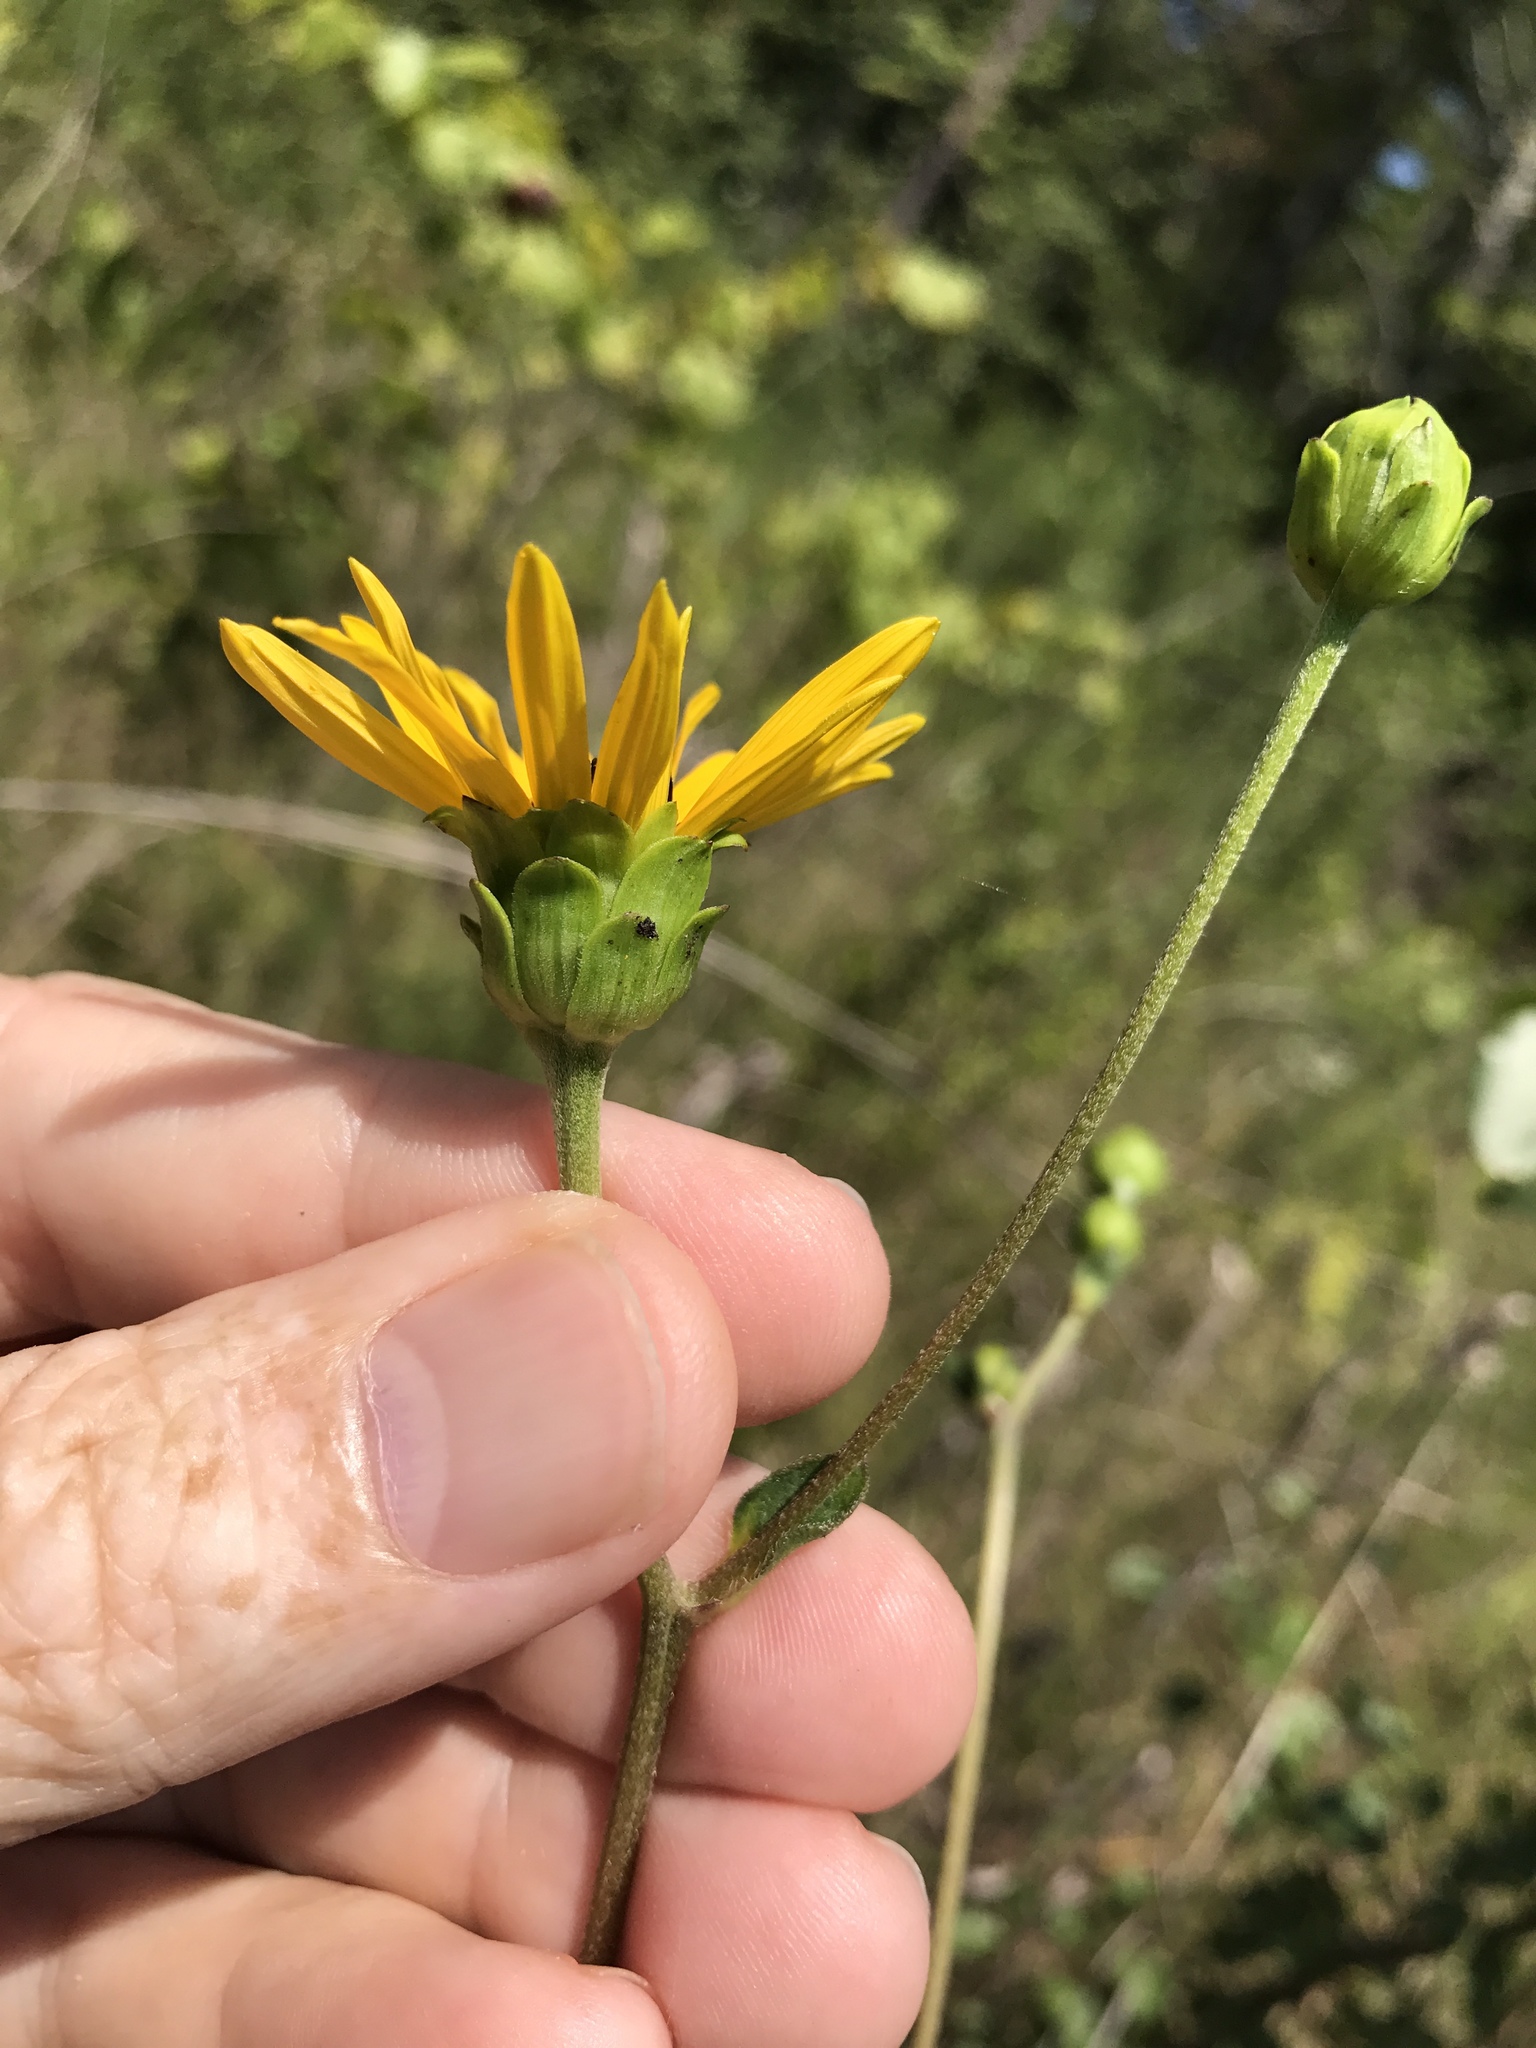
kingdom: Plantae
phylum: Tracheophyta
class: Magnoliopsida
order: Asterales
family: Asteraceae
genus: Silphium
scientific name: Silphium terebinthinaceum
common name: Basal-leaf rosinweed
